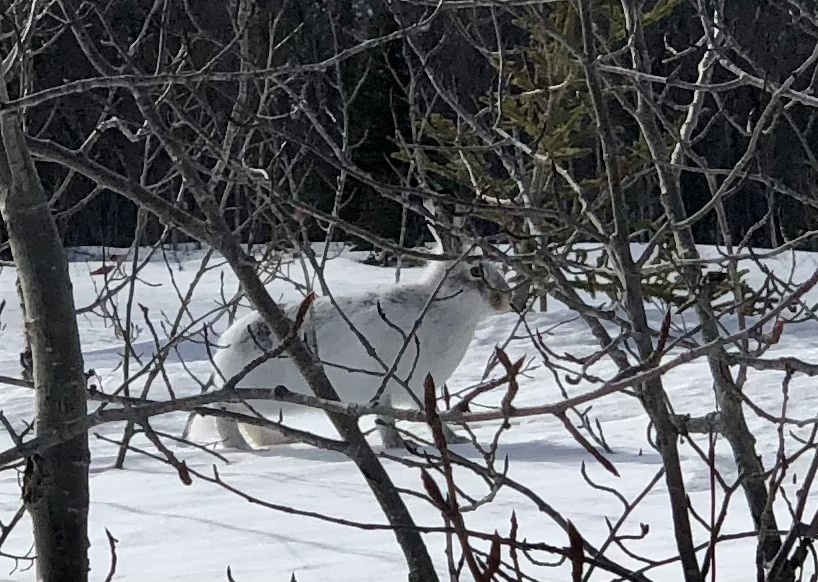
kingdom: Animalia
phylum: Chordata
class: Mammalia
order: Lagomorpha
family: Leporidae
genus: Lepus
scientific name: Lepus townsendii
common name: White-tailed jackrabbit
